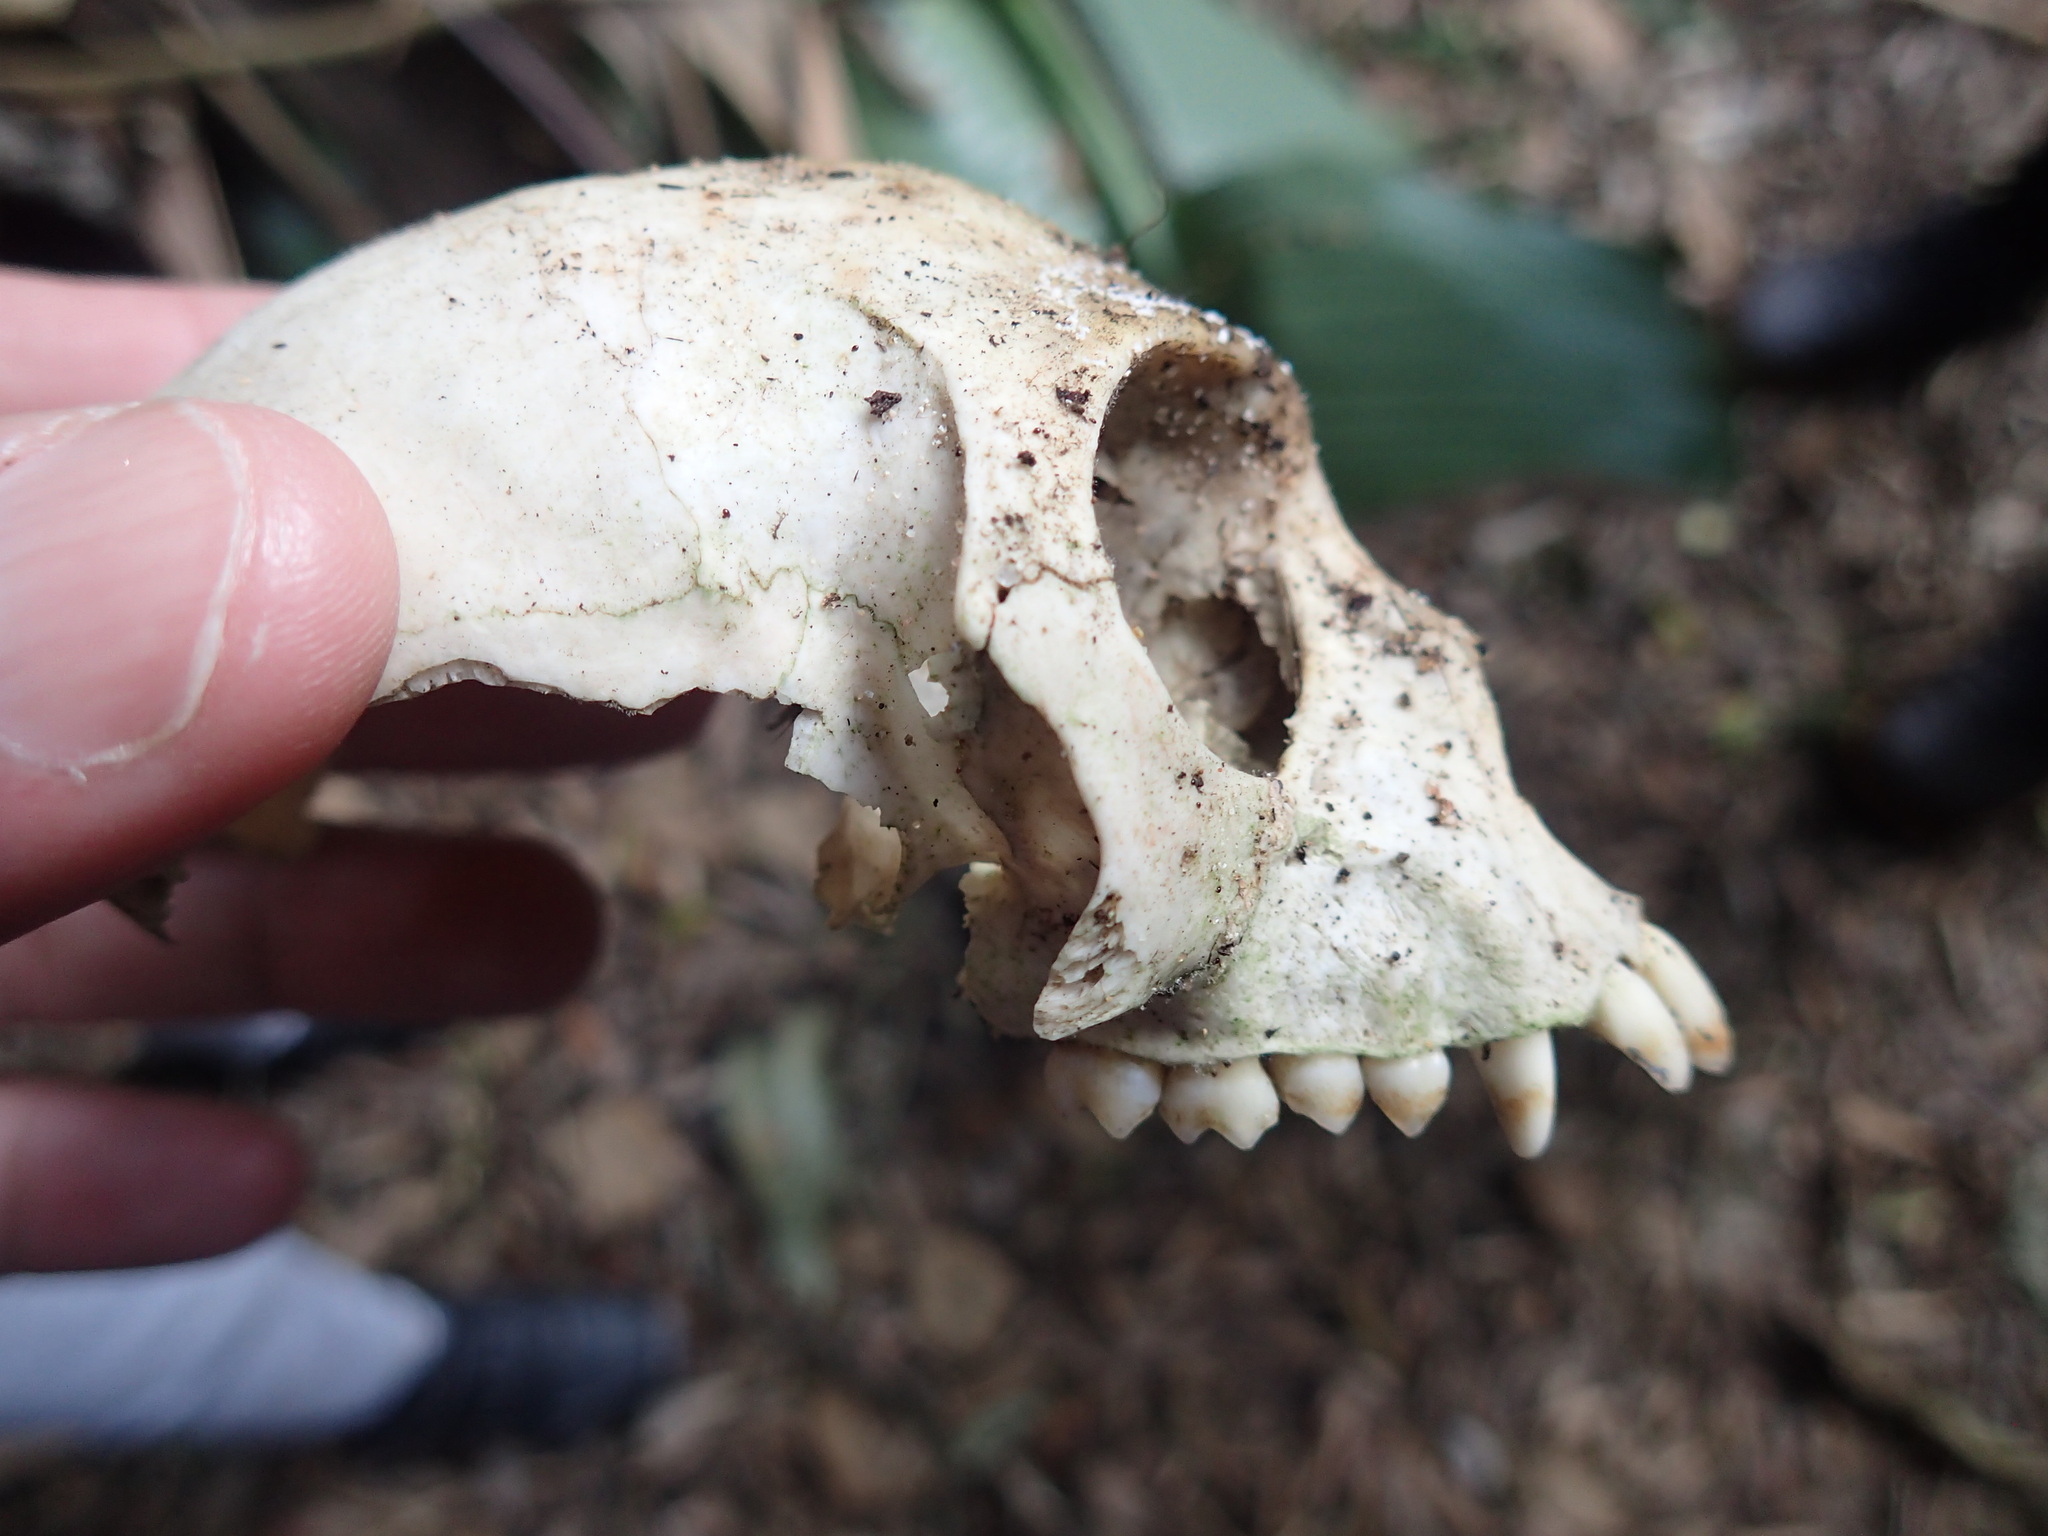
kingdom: Animalia
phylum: Chordata
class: Mammalia
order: Primates
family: Cercopithecidae
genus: Chlorocebus
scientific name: Chlorocebus pygerythrus
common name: Vervet monkey
